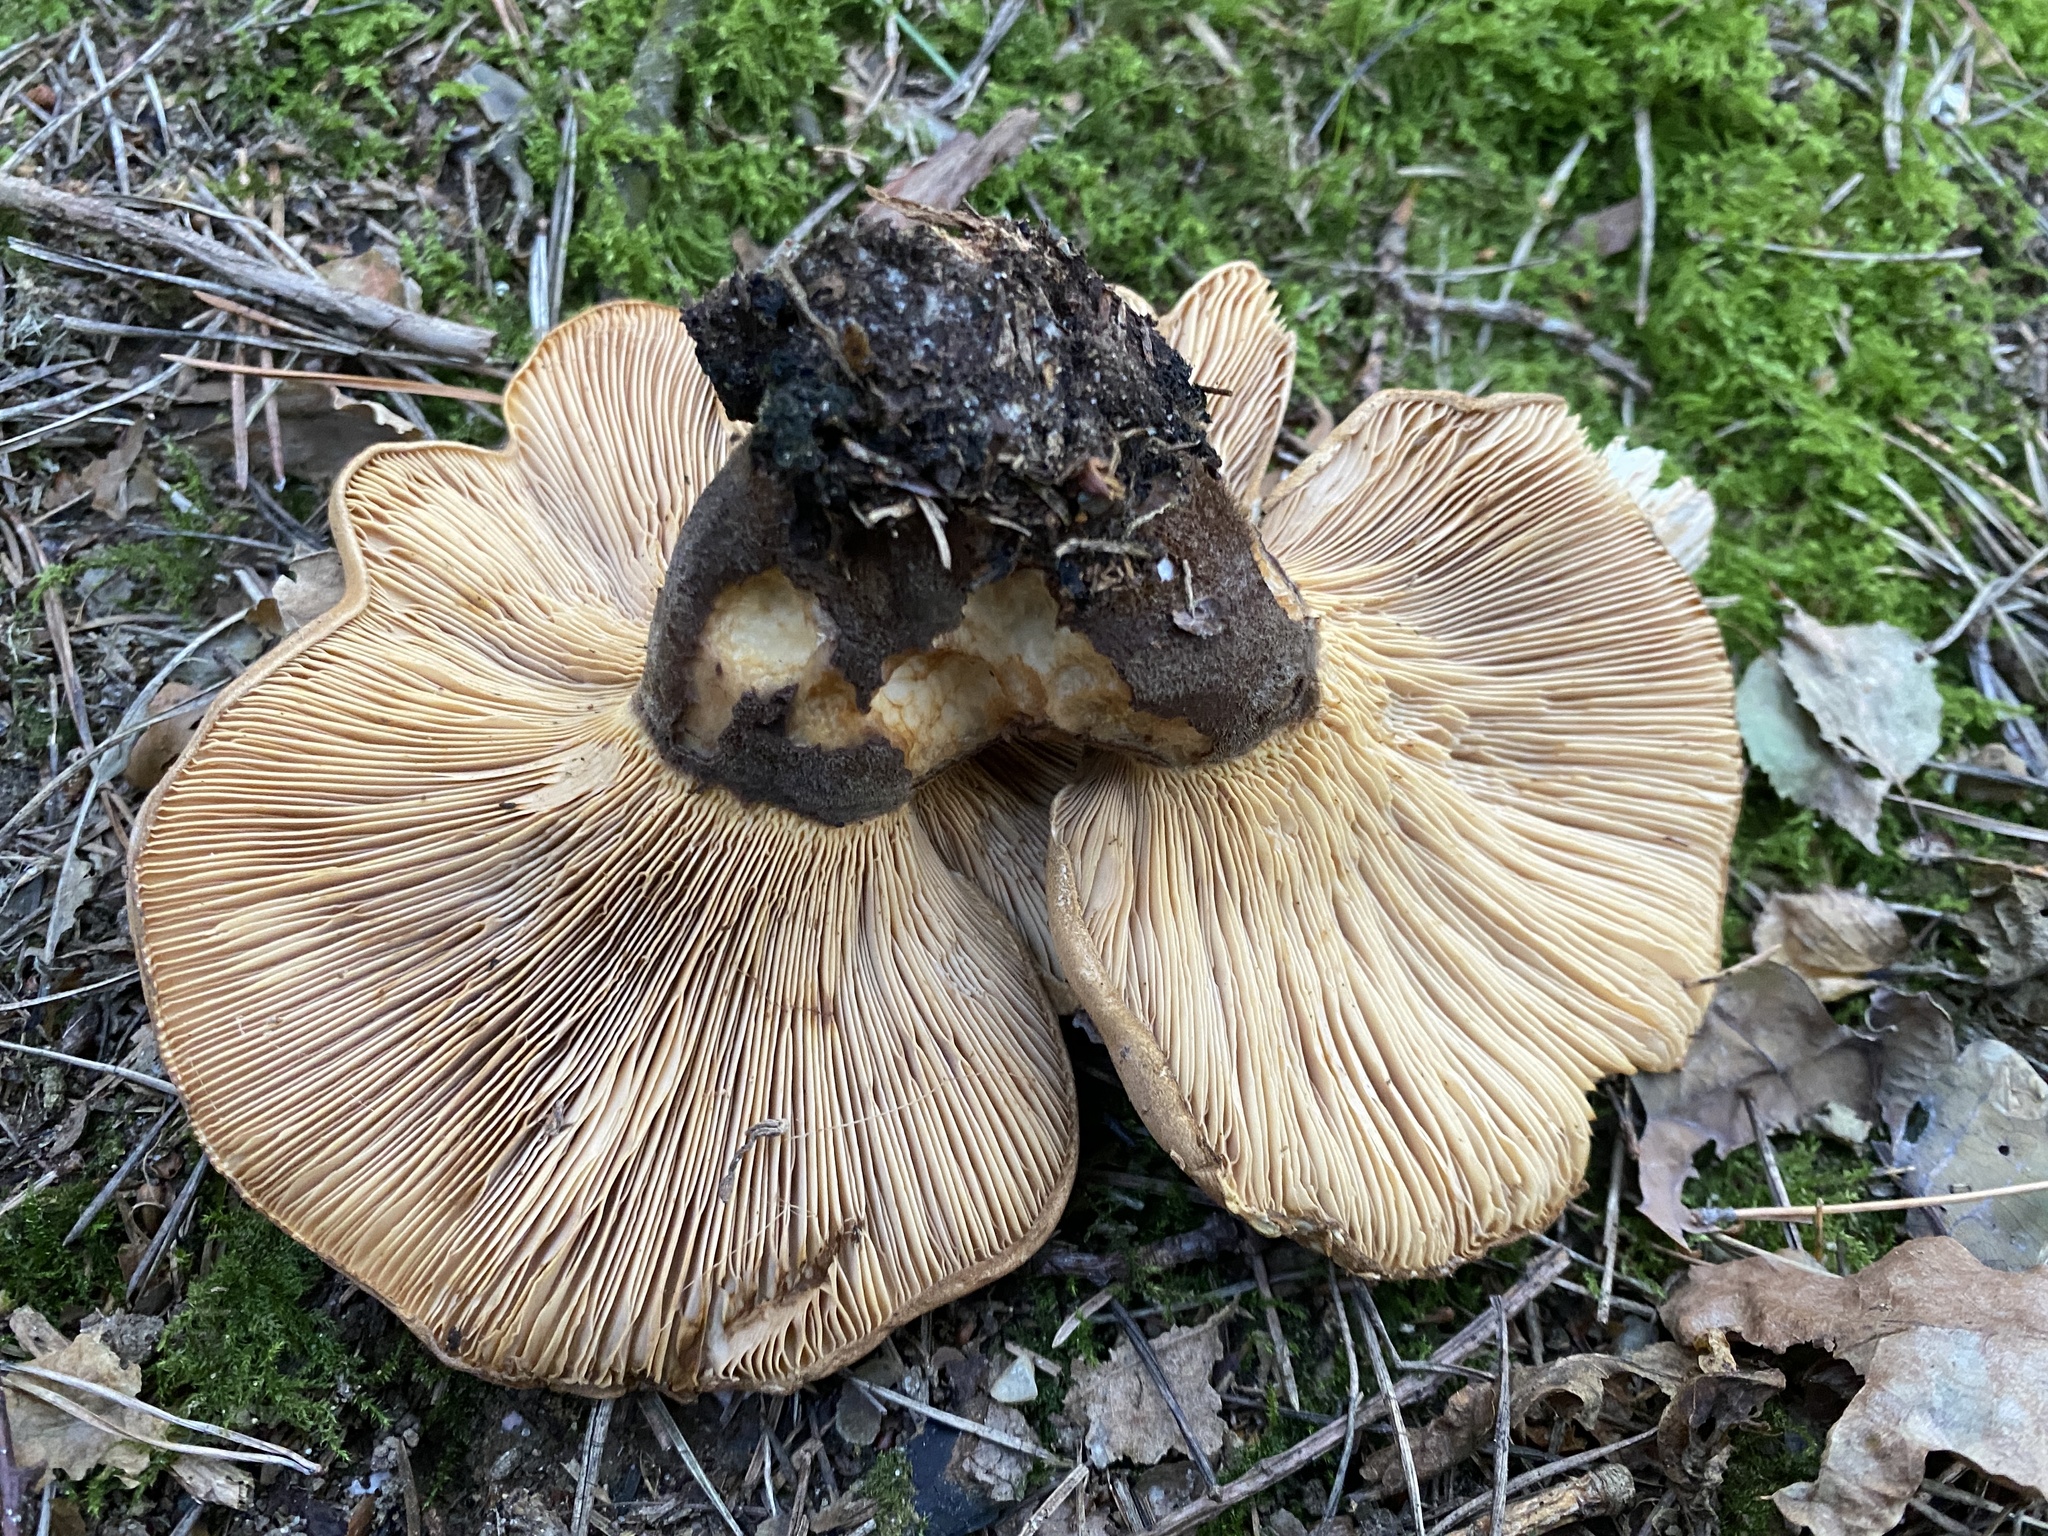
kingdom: Fungi
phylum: Basidiomycota
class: Agaricomycetes
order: Boletales
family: Tapinellaceae
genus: Tapinella
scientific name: Tapinella atrotomentosa
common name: Velvet rollrim
